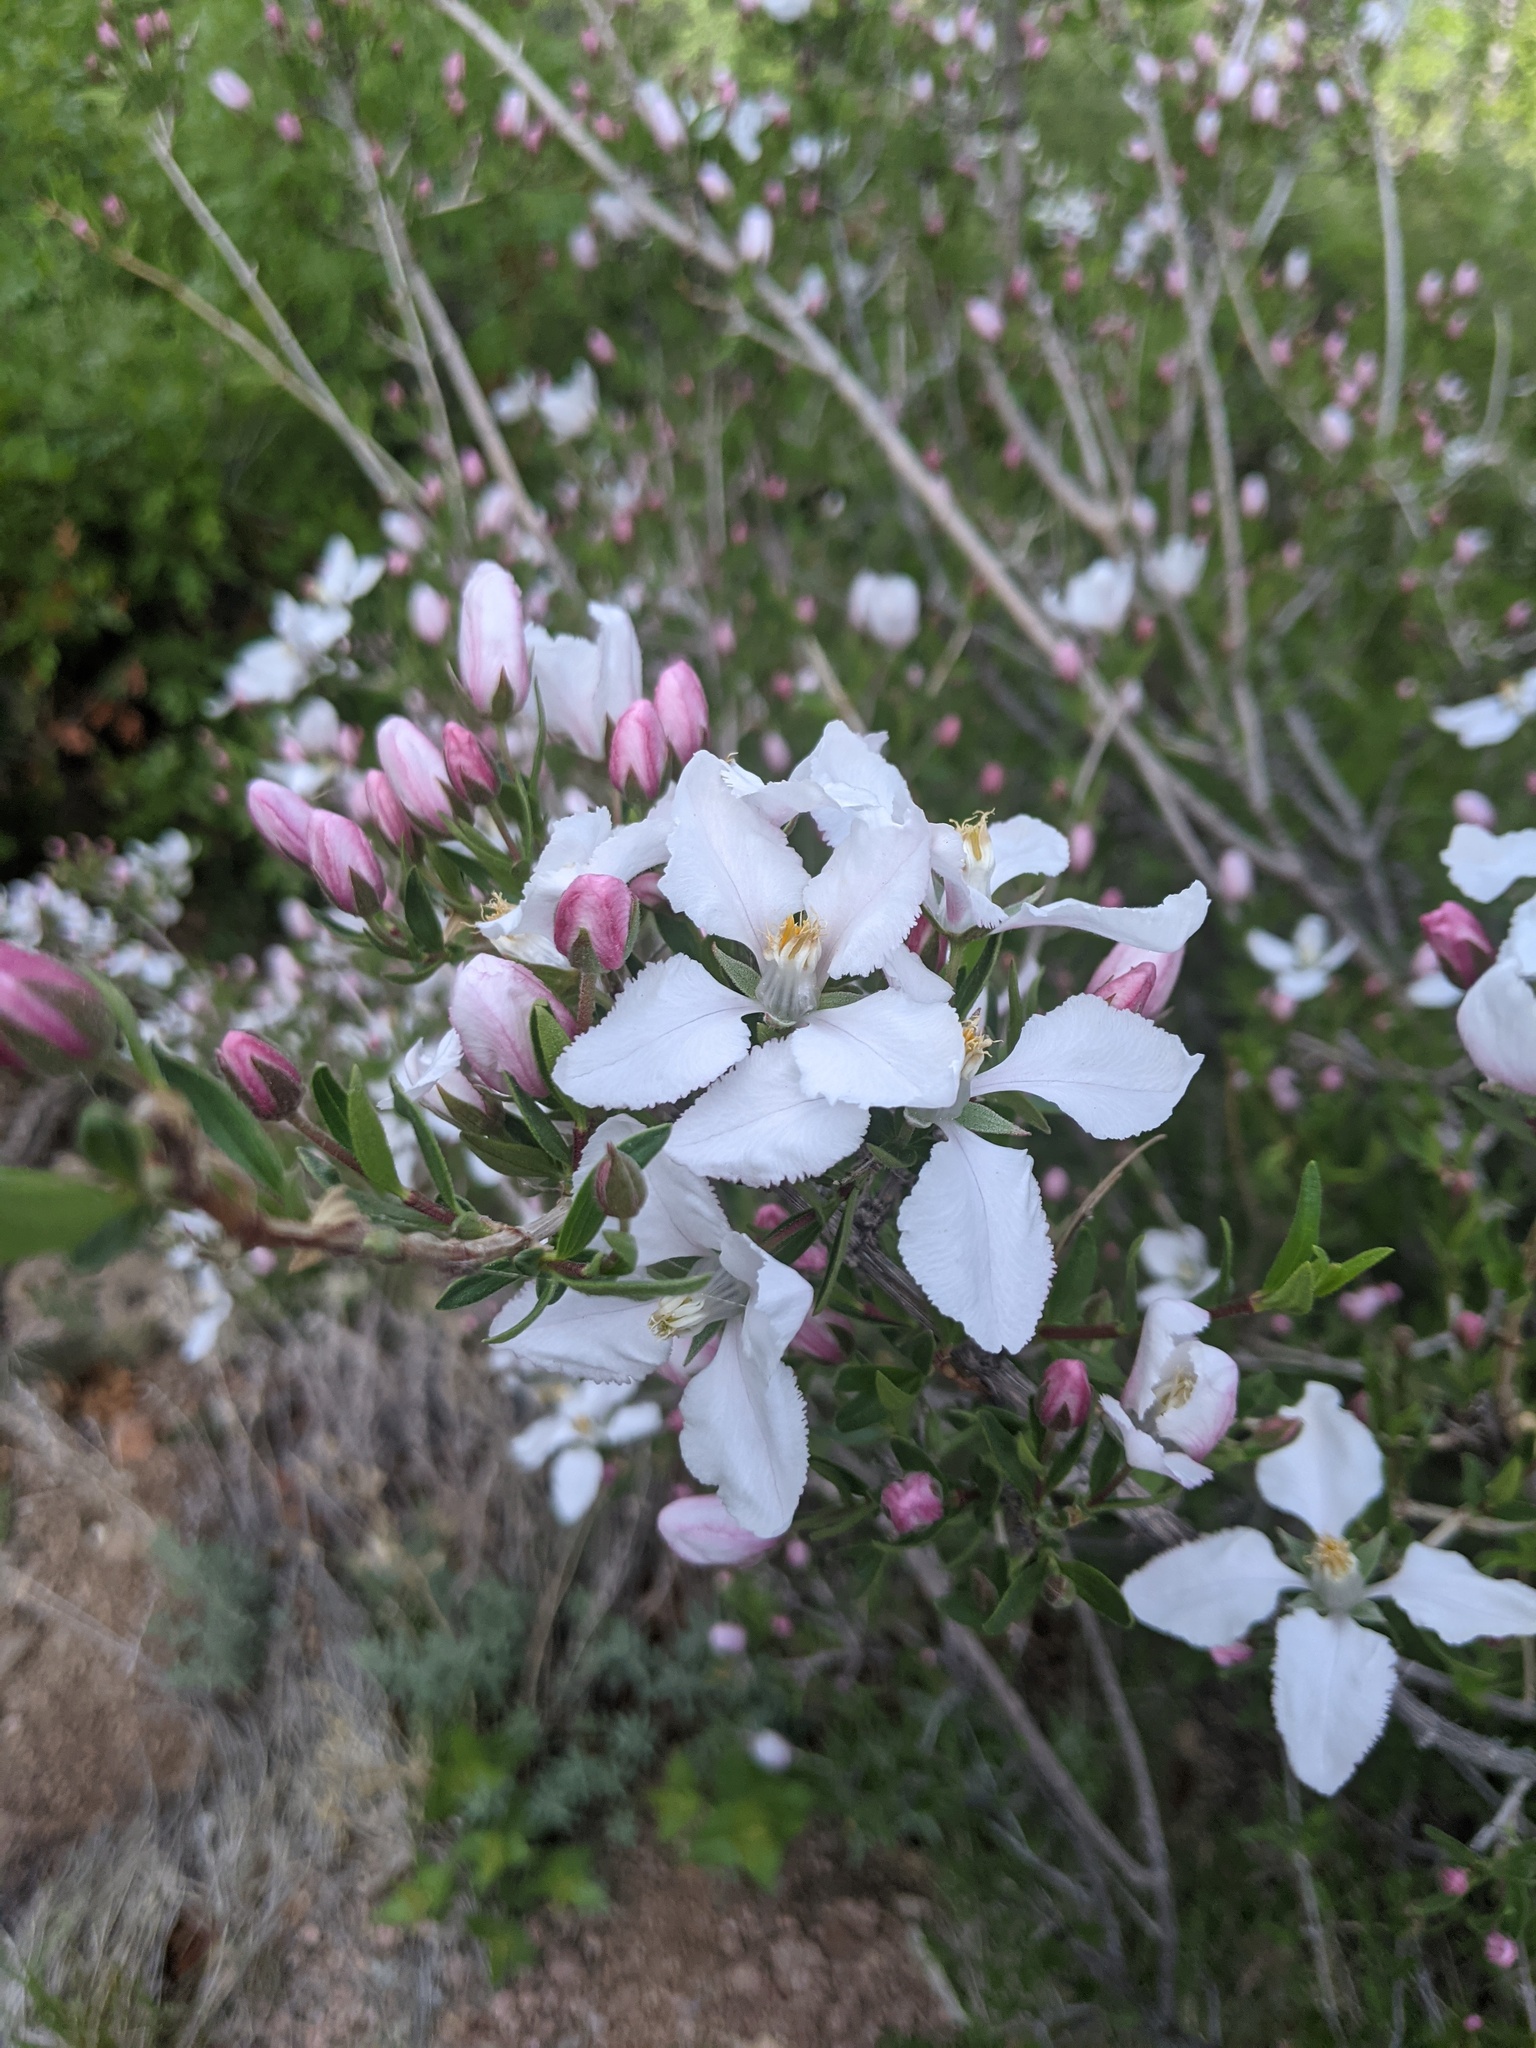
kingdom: Plantae
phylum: Tracheophyta
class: Magnoliopsida
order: Cornales
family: Hydrangeaceae
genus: Fendlera
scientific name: Fendlera rupicola
